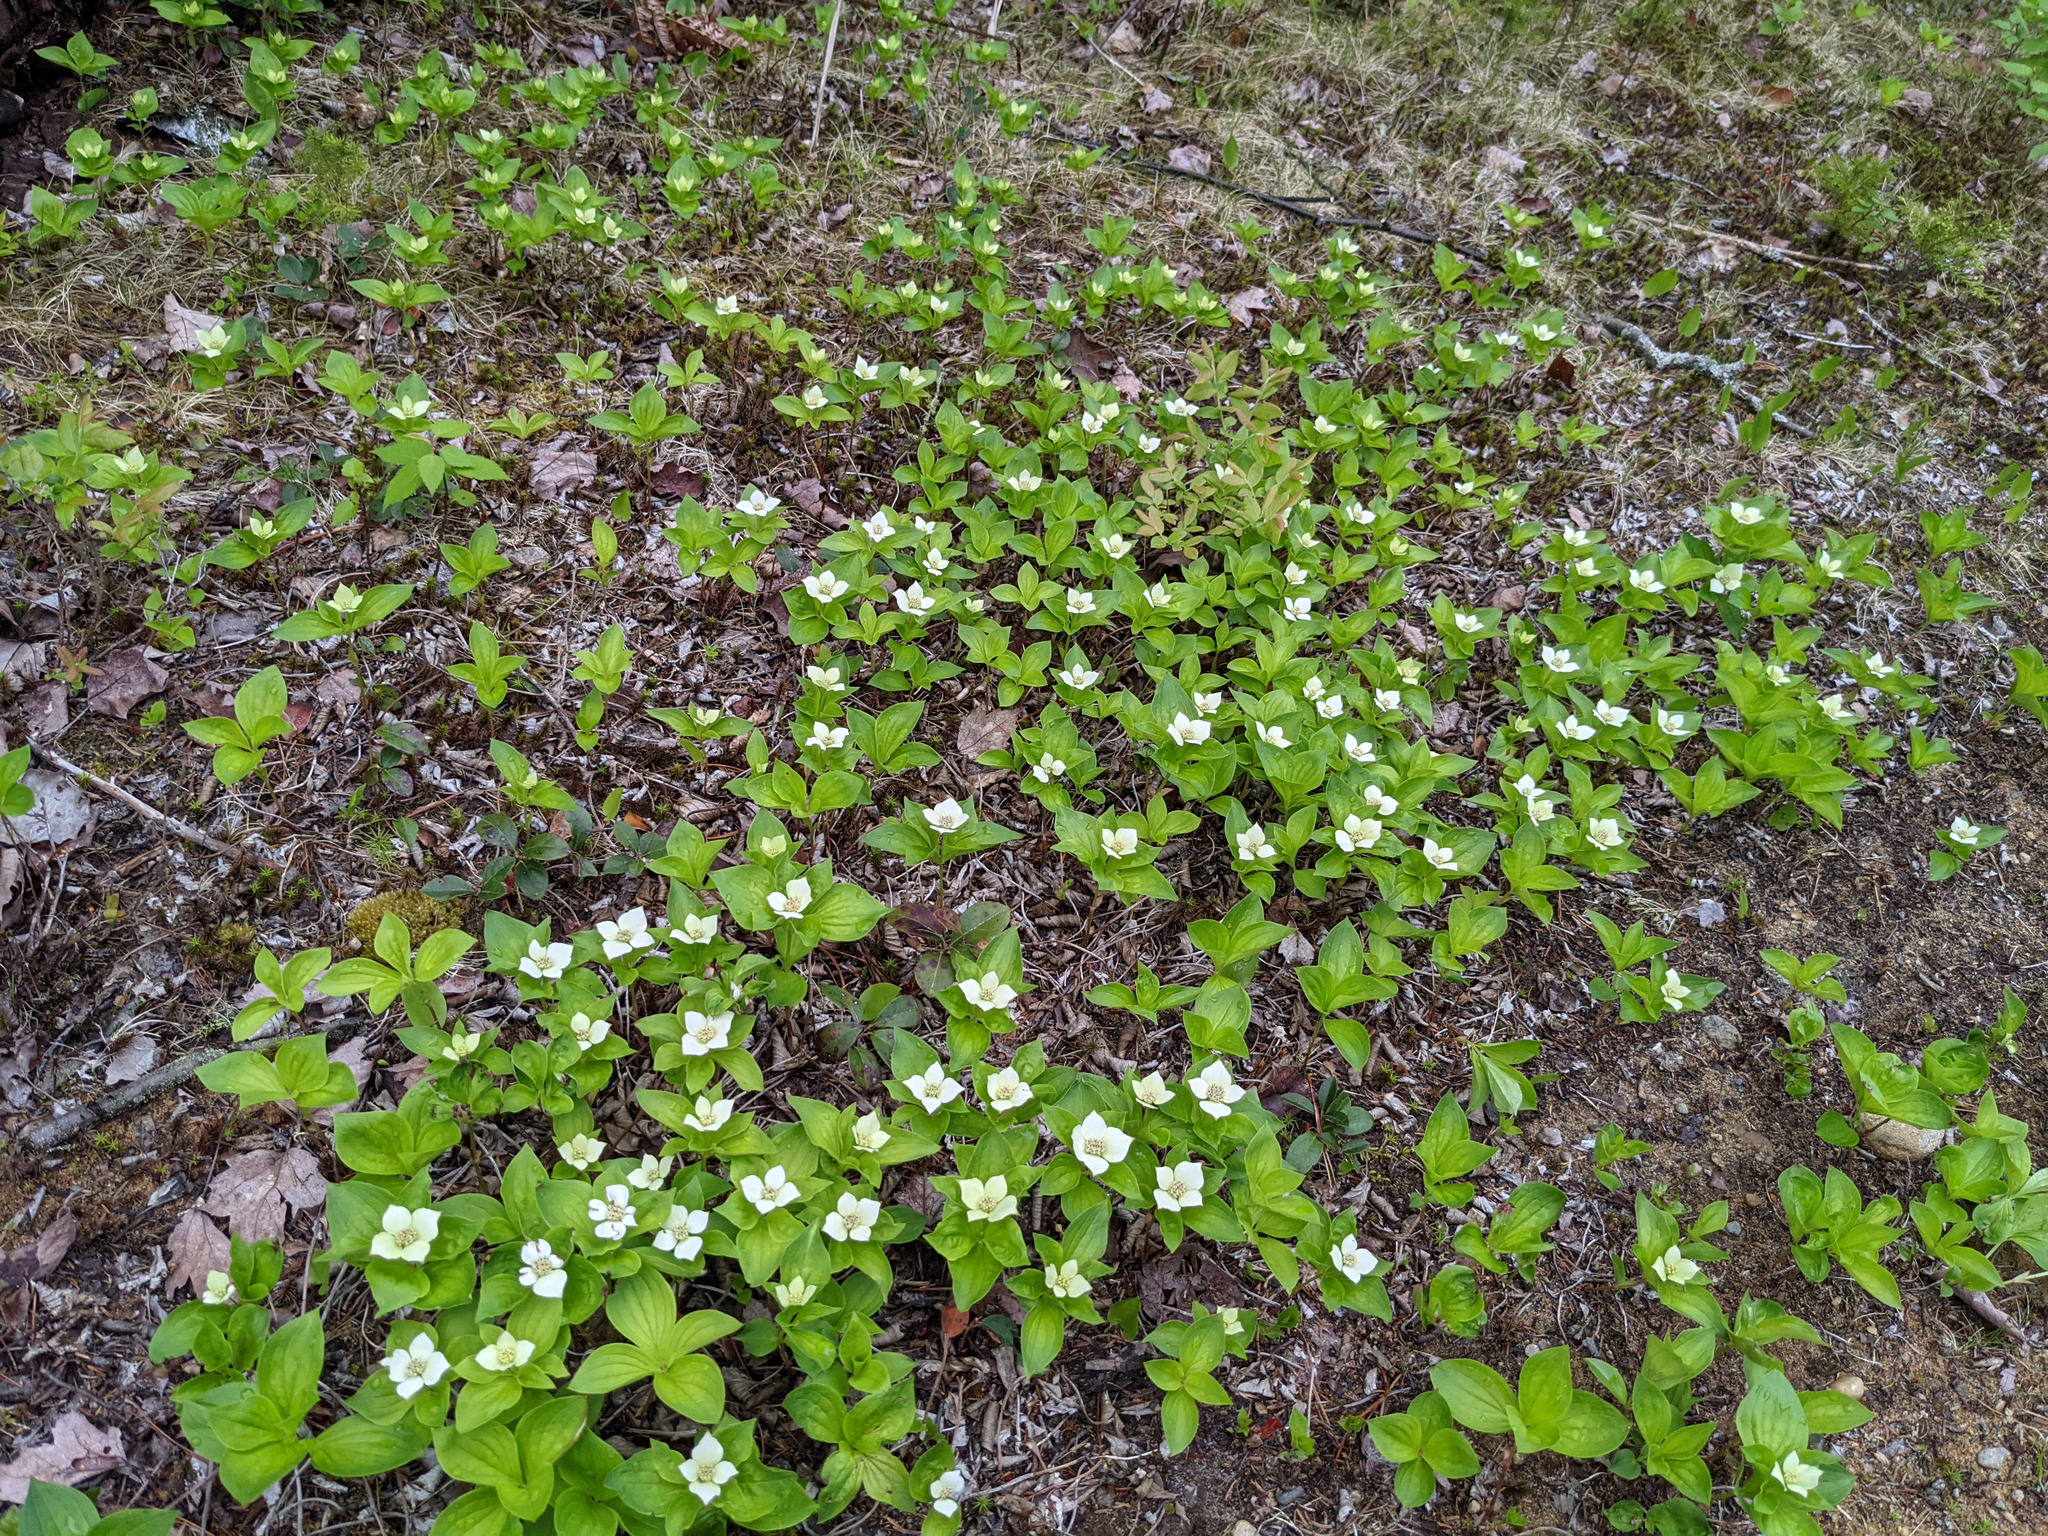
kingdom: Plantae
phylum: Tracheophyta
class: Magnoliopsida
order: Cornales
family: Cornaceae
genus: Cornus
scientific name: Cornus canadensis
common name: Creeping dogwood
